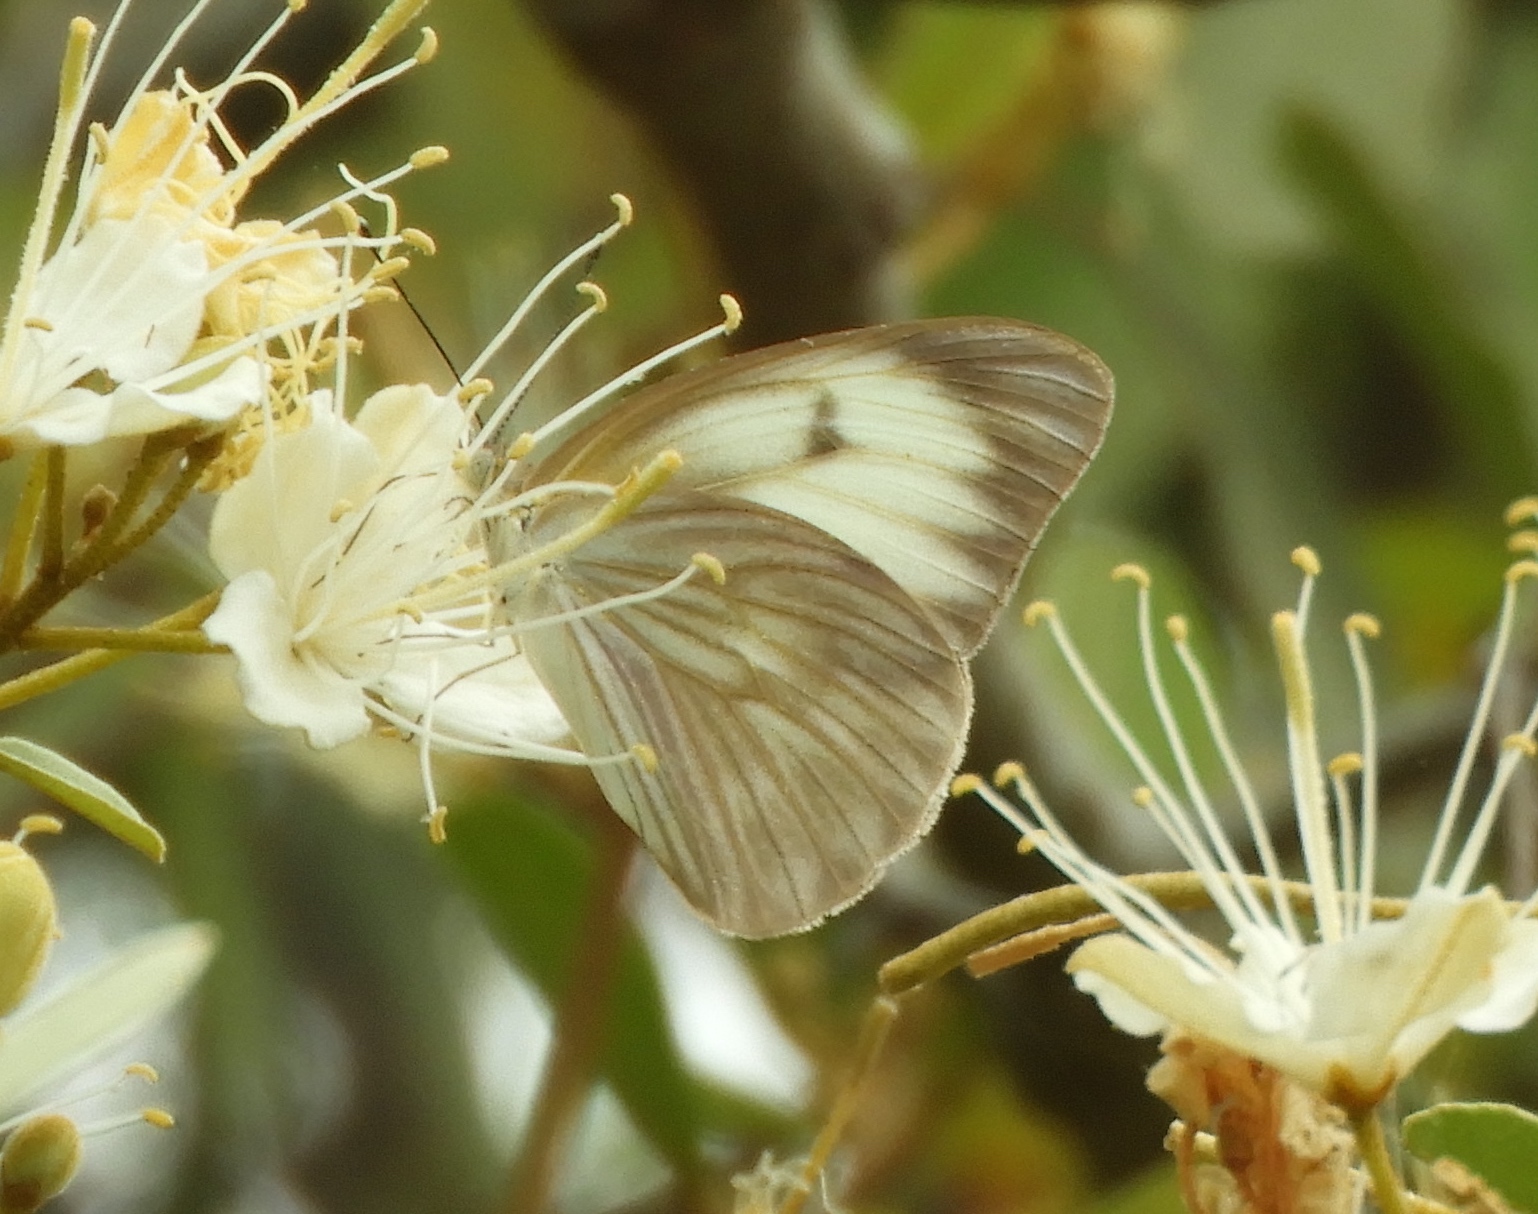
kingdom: Animalia
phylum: Arthropoda
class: Insecta
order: Lepidoptera
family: Pieridae
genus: Ascia
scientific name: Ascia monuste
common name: Great southern white
